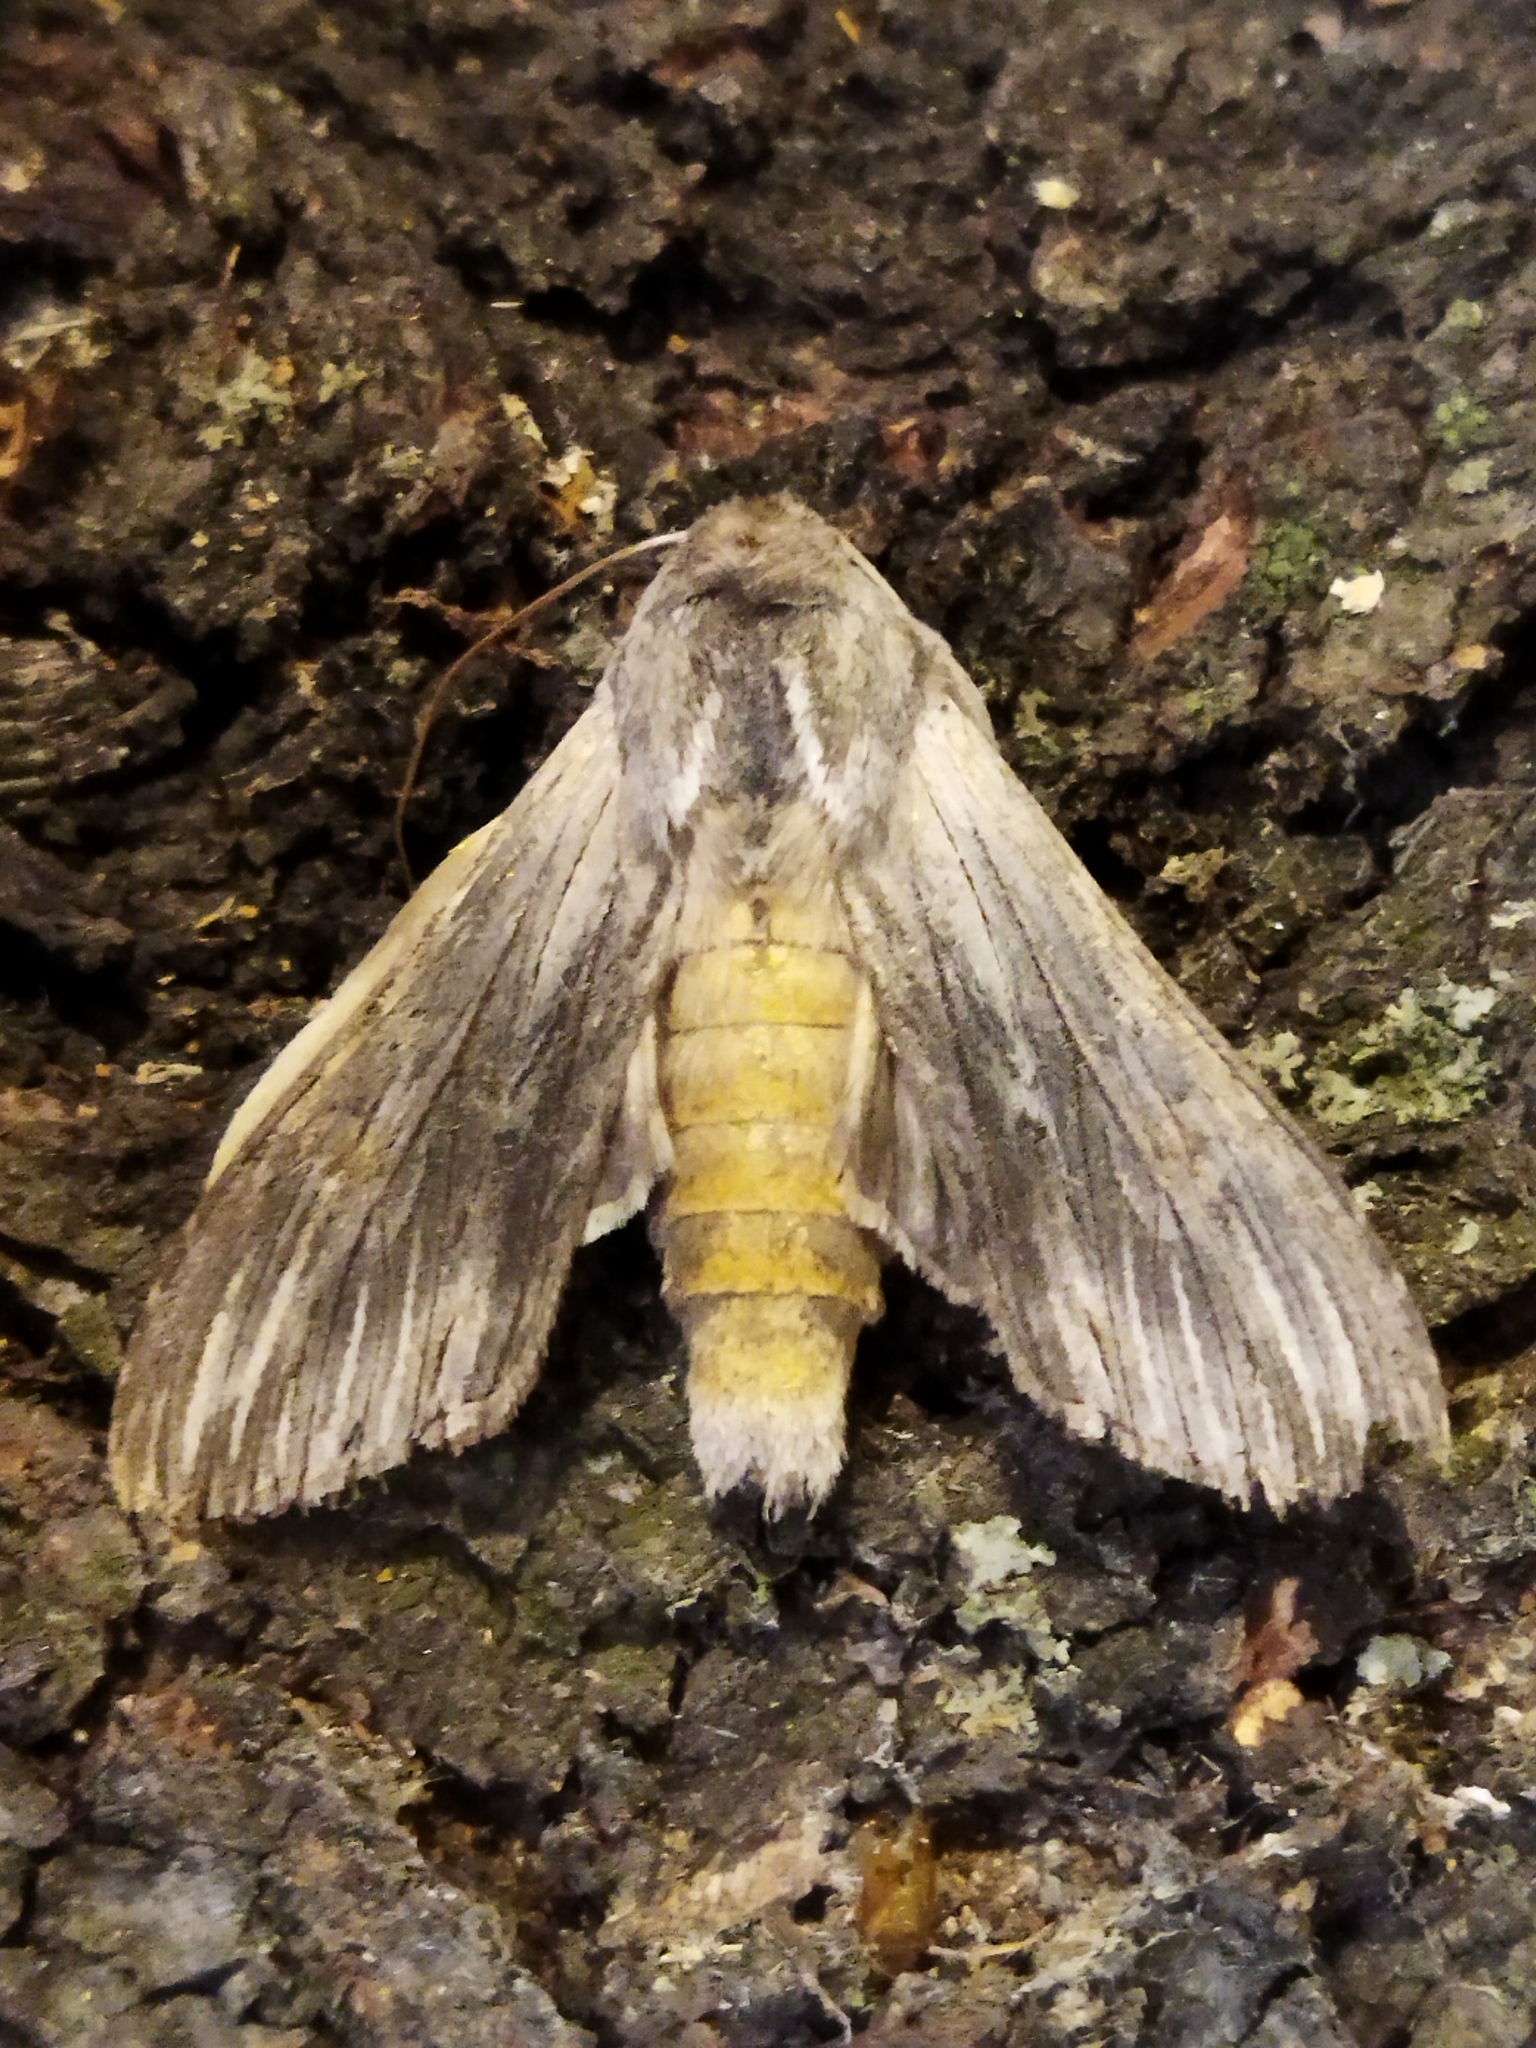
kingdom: Animalia
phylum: Arthropoda
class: Insecta
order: Lepidoptera
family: Noctuidae
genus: Cucullia
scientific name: Cucullia chamomillae
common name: Chamomile shark
